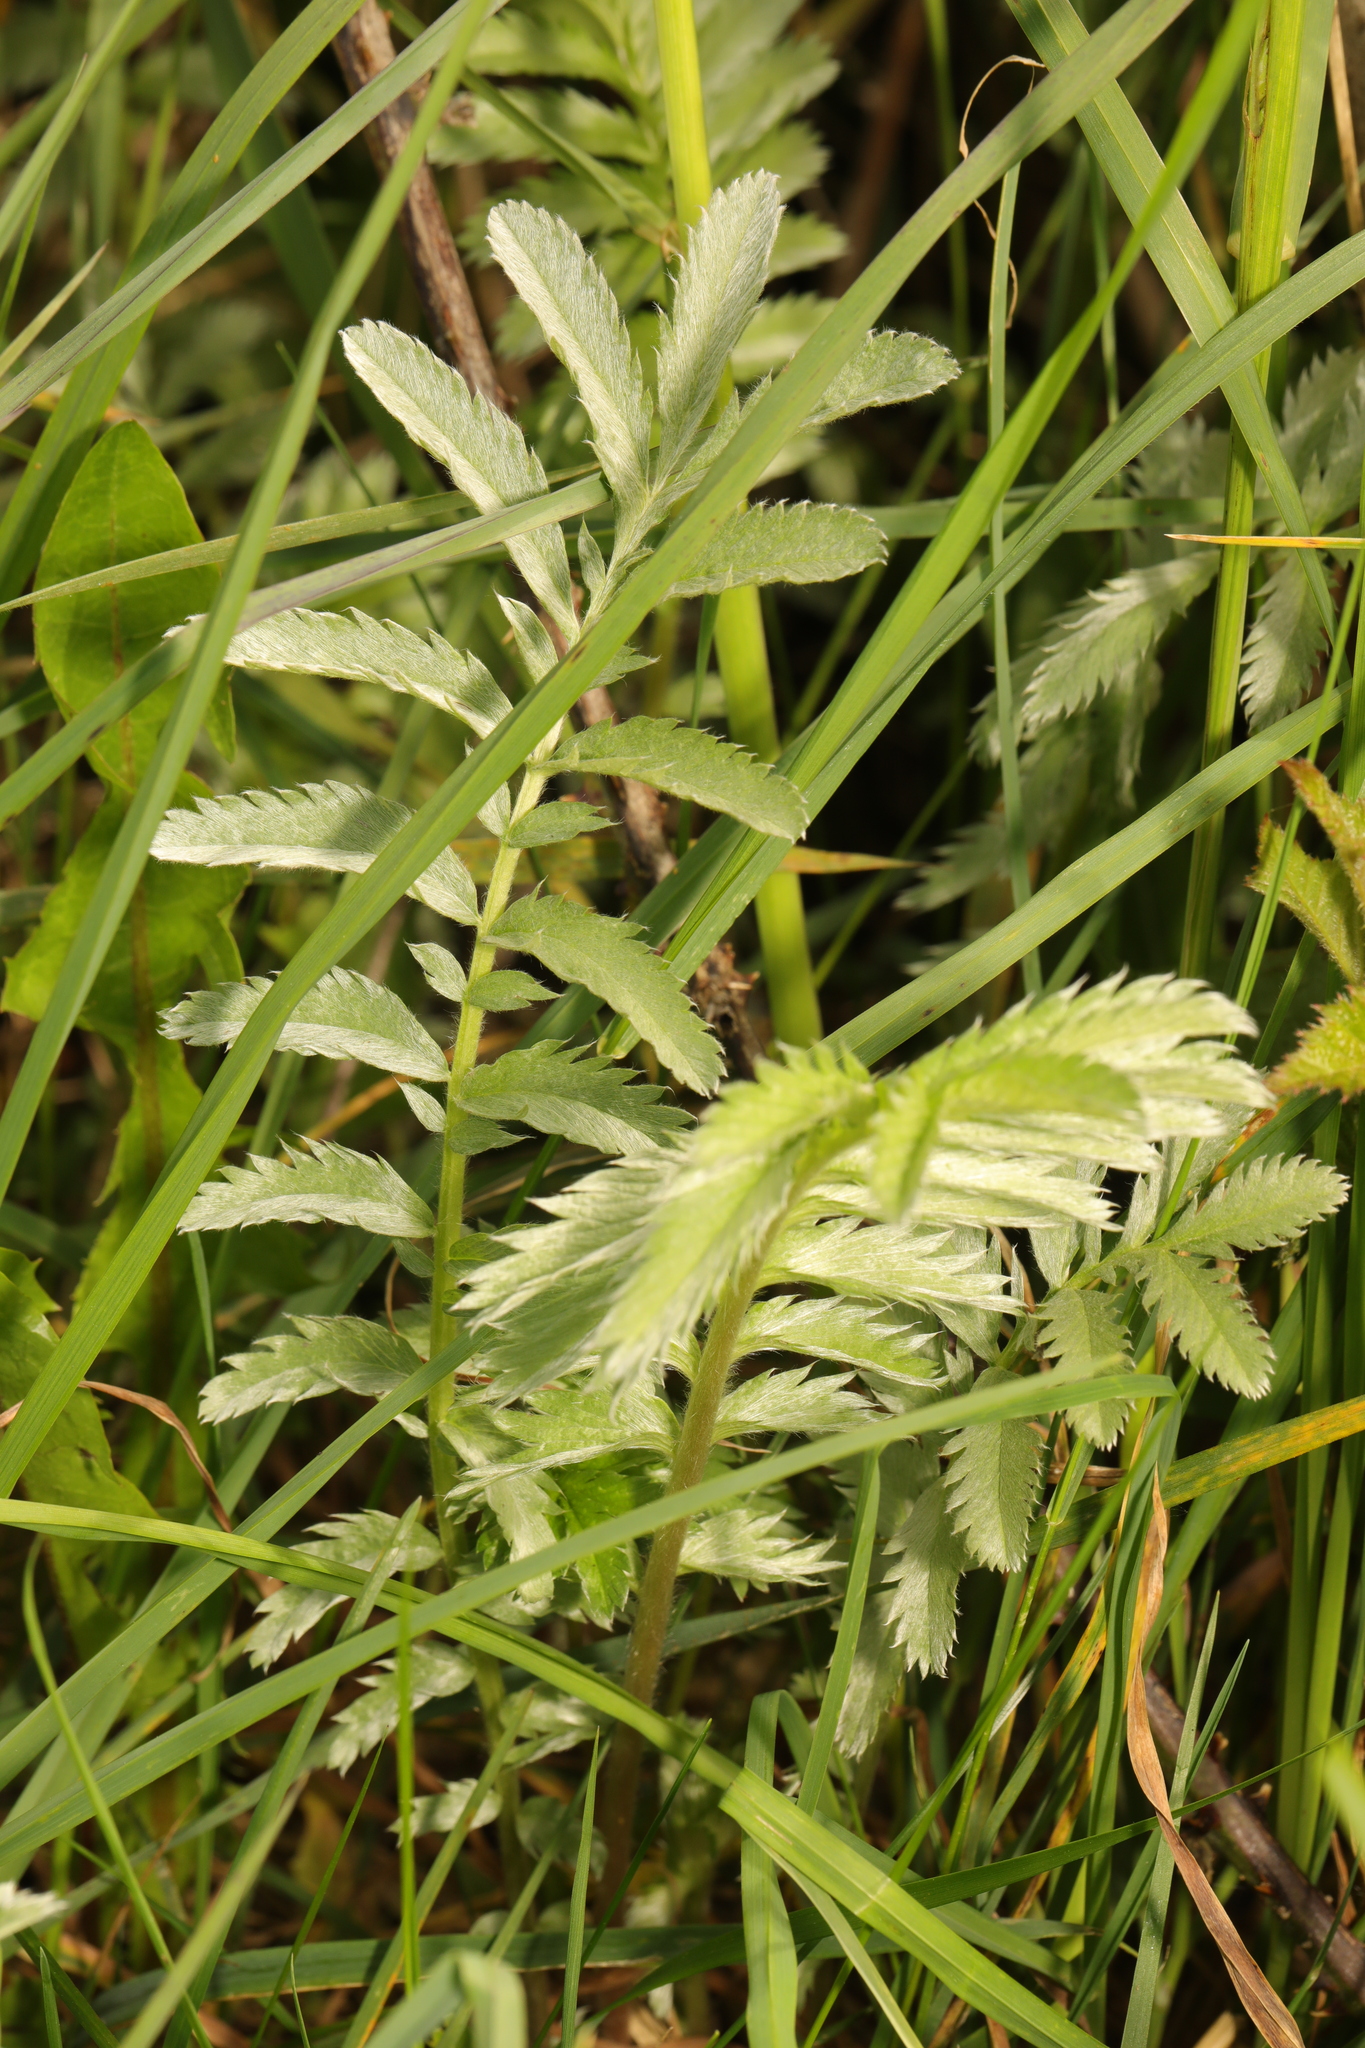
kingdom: Plantae
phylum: Tracheophyta
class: Magnoliopsida
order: Rosales
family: Rosaceae
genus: Argentina
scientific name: Argentina anserina
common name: Common silverweed
